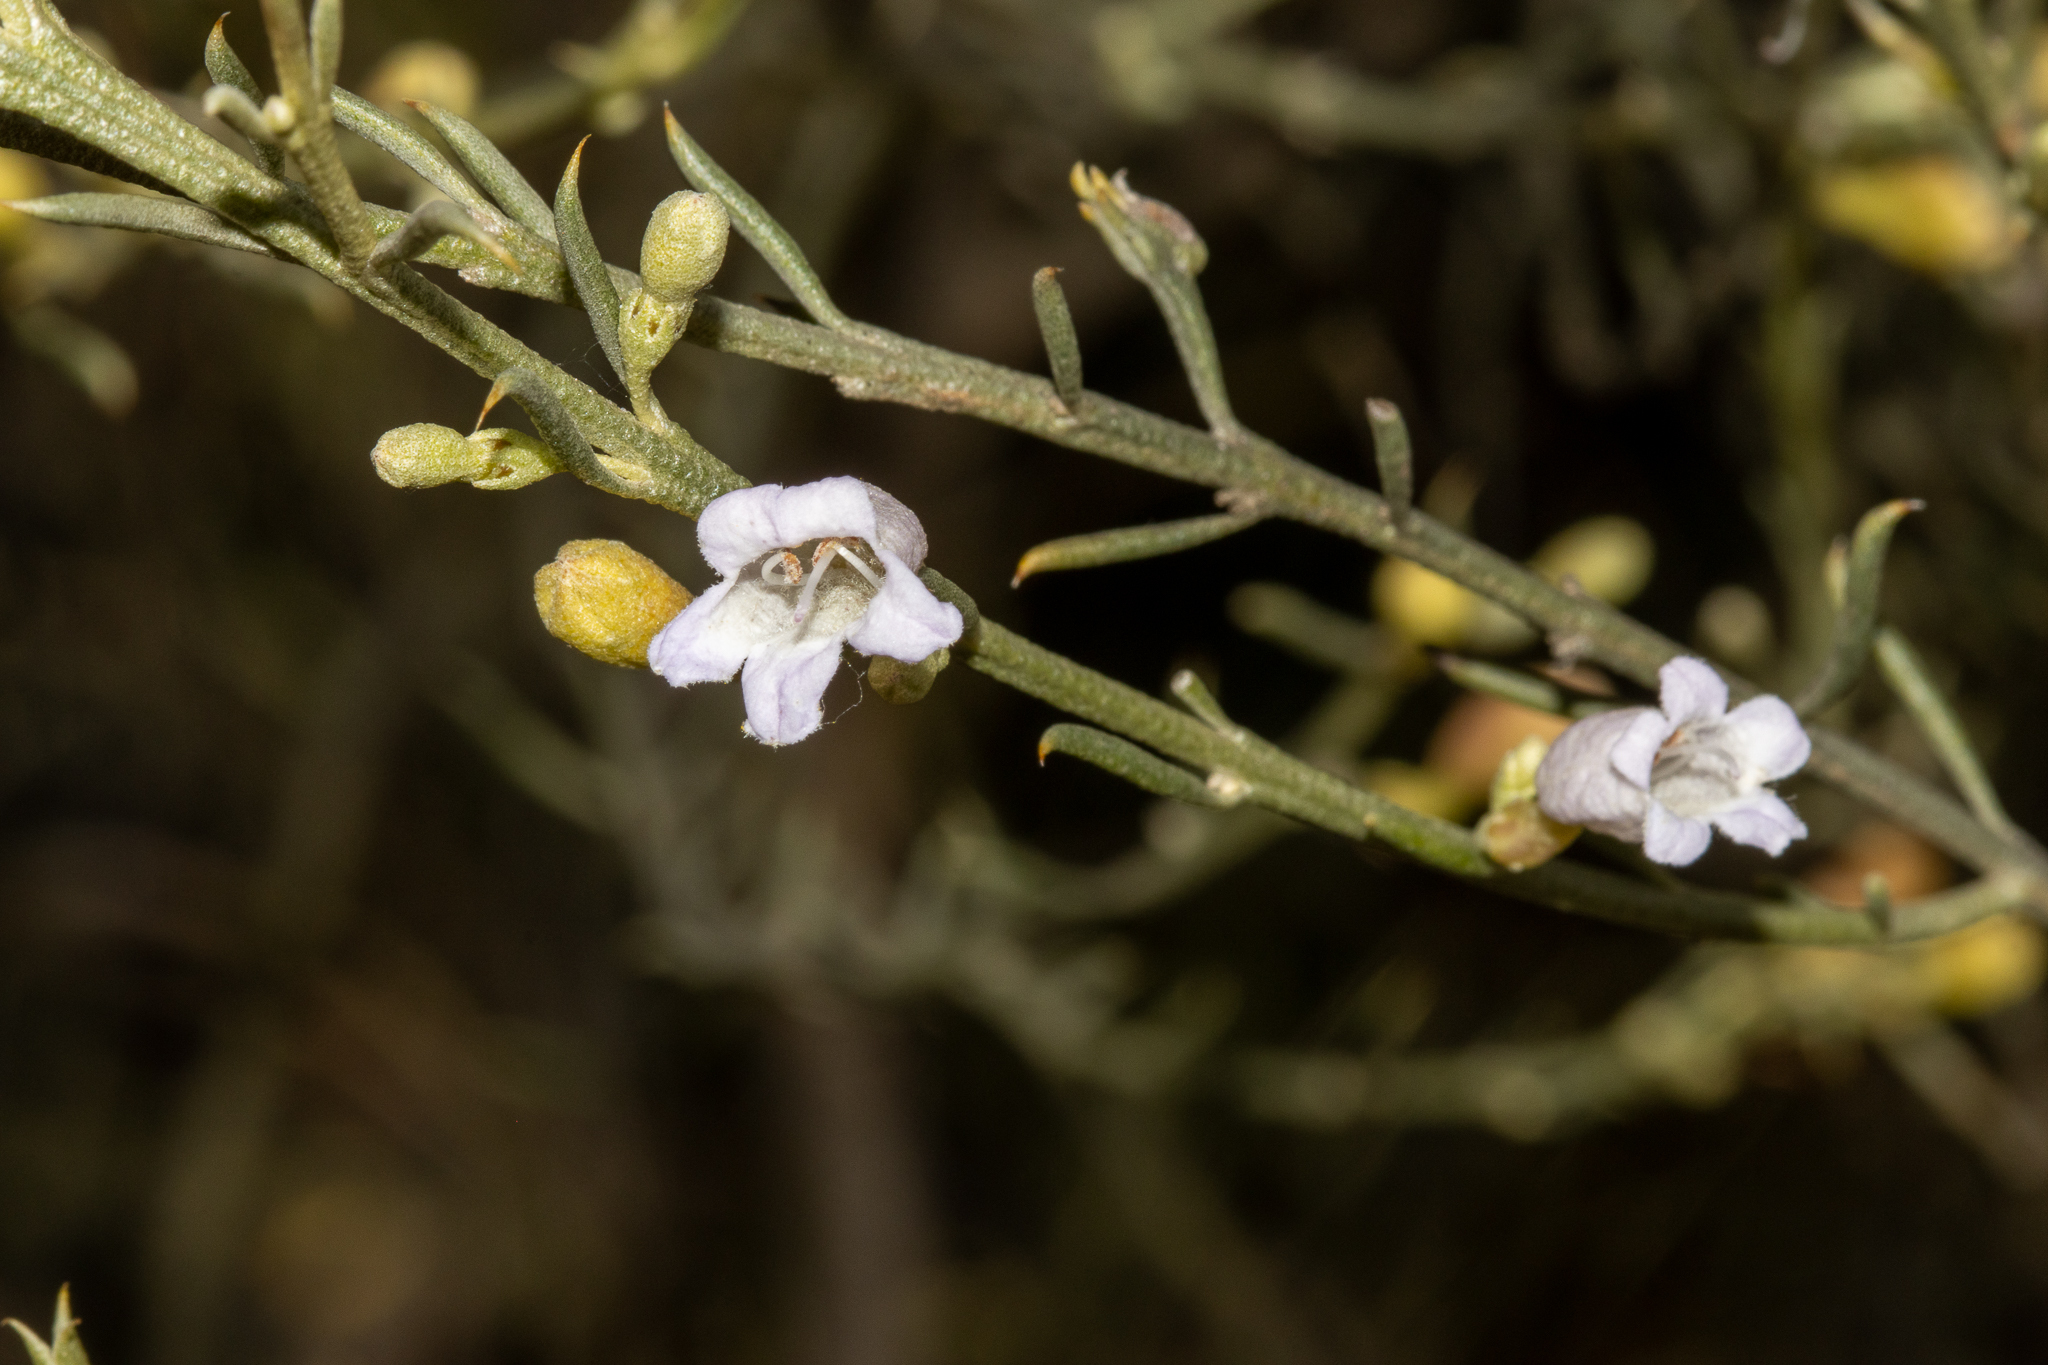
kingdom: Plantae
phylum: Tracheophyta
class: Magnoliopsida
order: Lamiales
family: Scrophulariaceae
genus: Eremophila
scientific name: Eremophila scoparia
